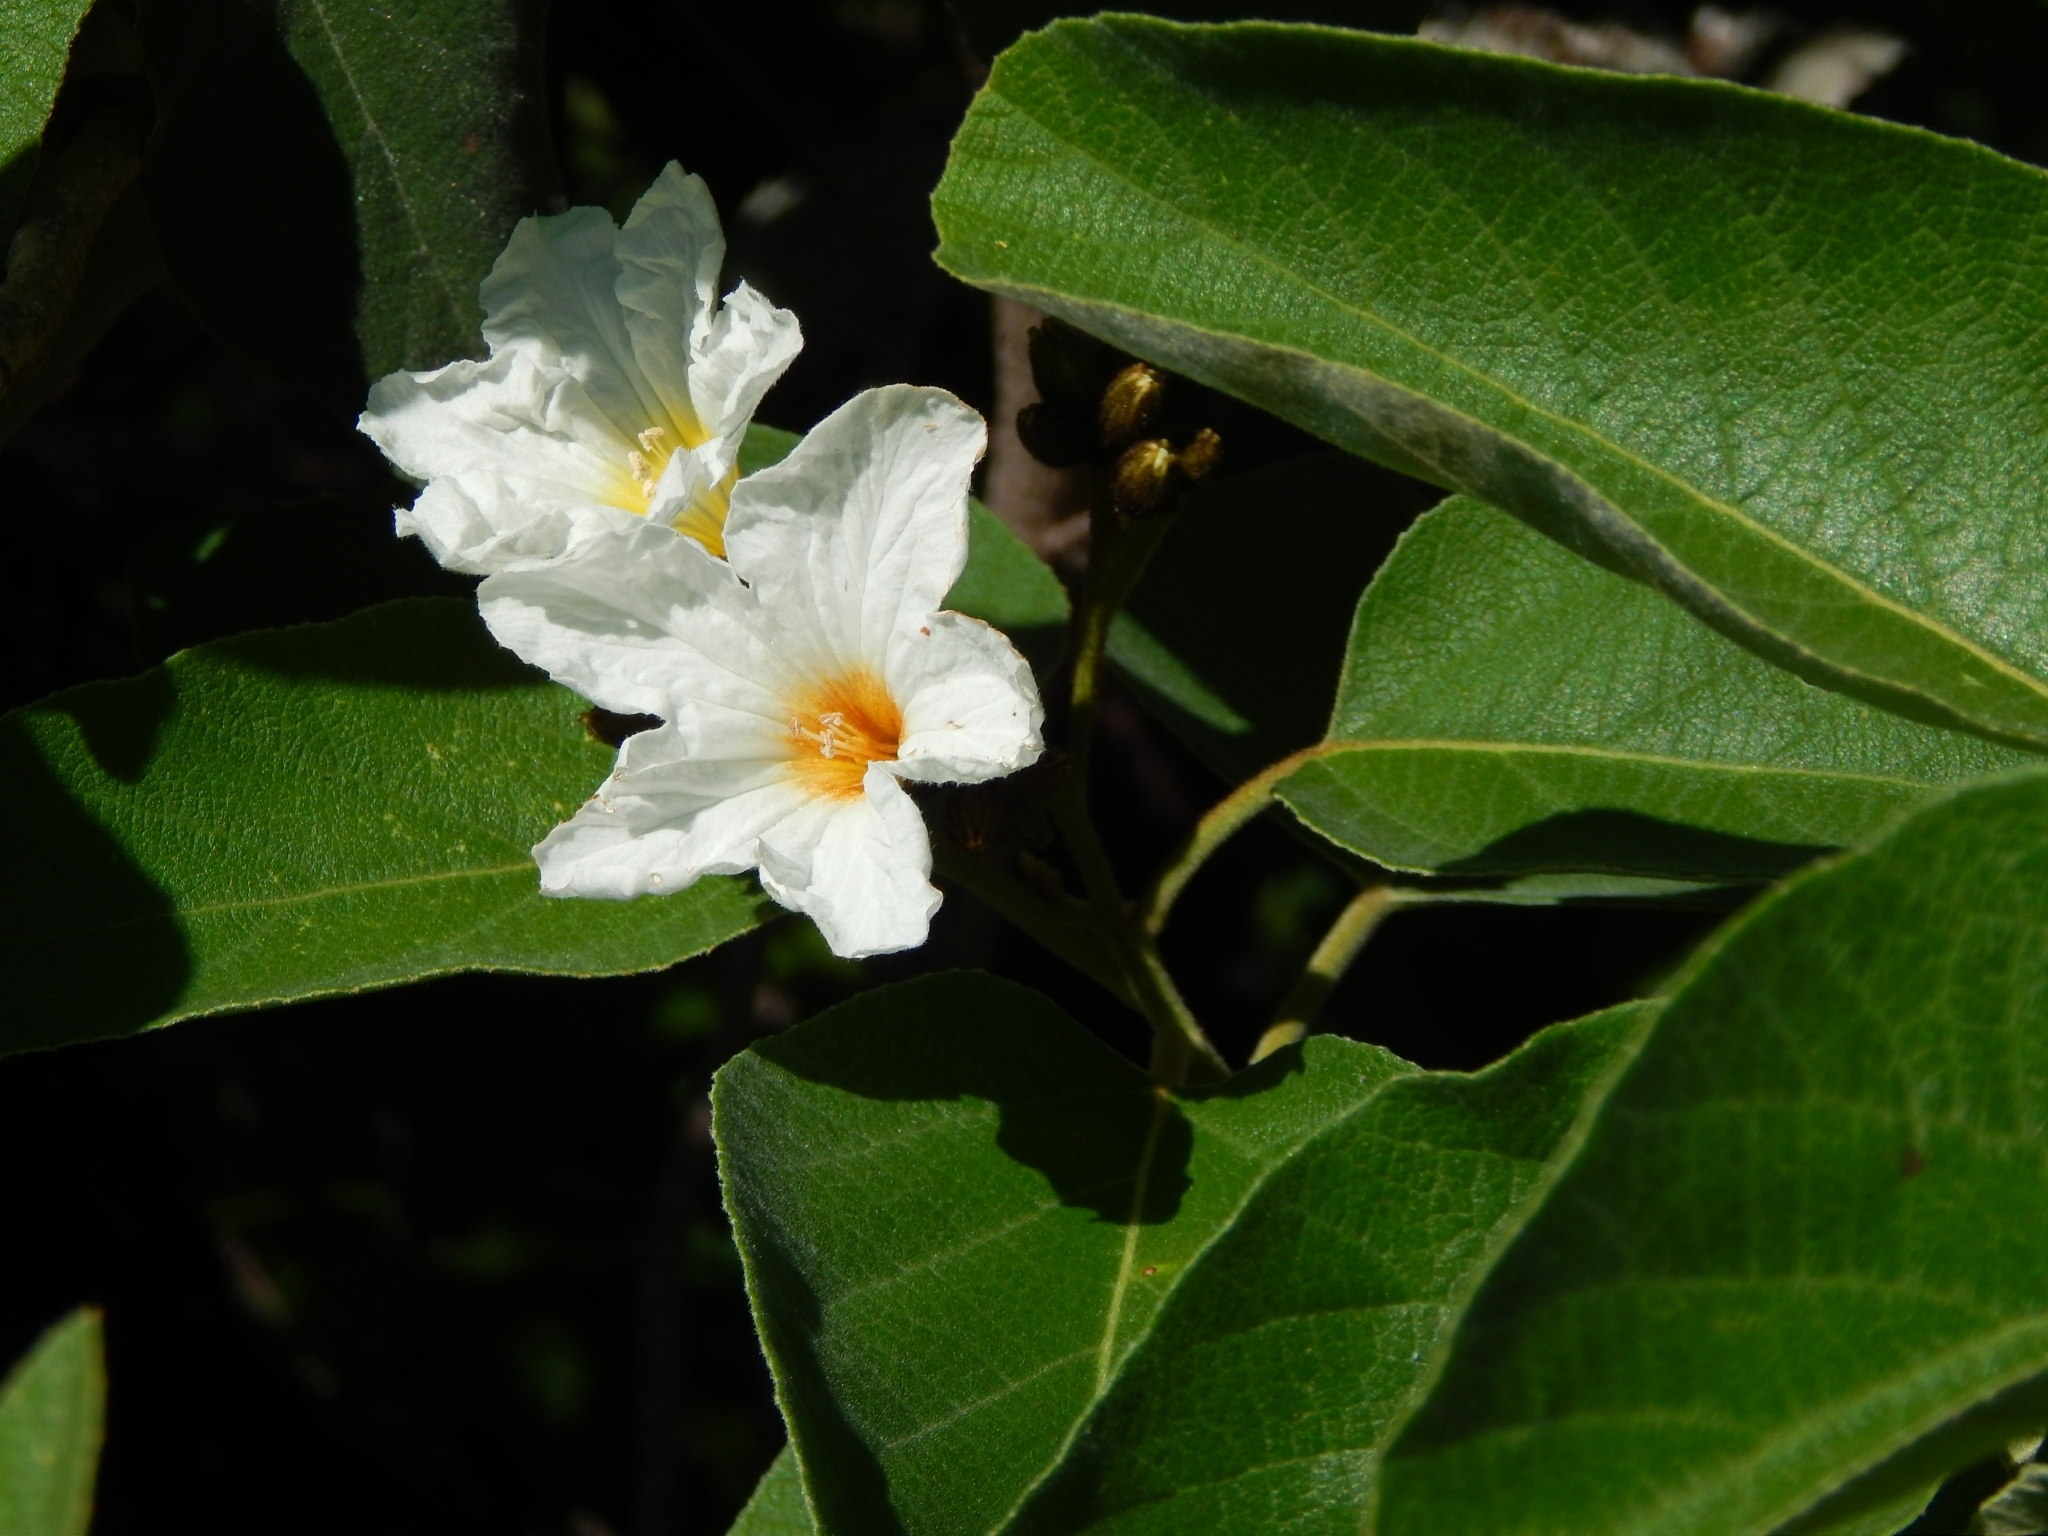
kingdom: Plantae
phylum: Tracheophyta
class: Magnoliopsida
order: Boraginales
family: Cordiaceae
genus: Cordia
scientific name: Cordia boissieri
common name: Mexican-olive
